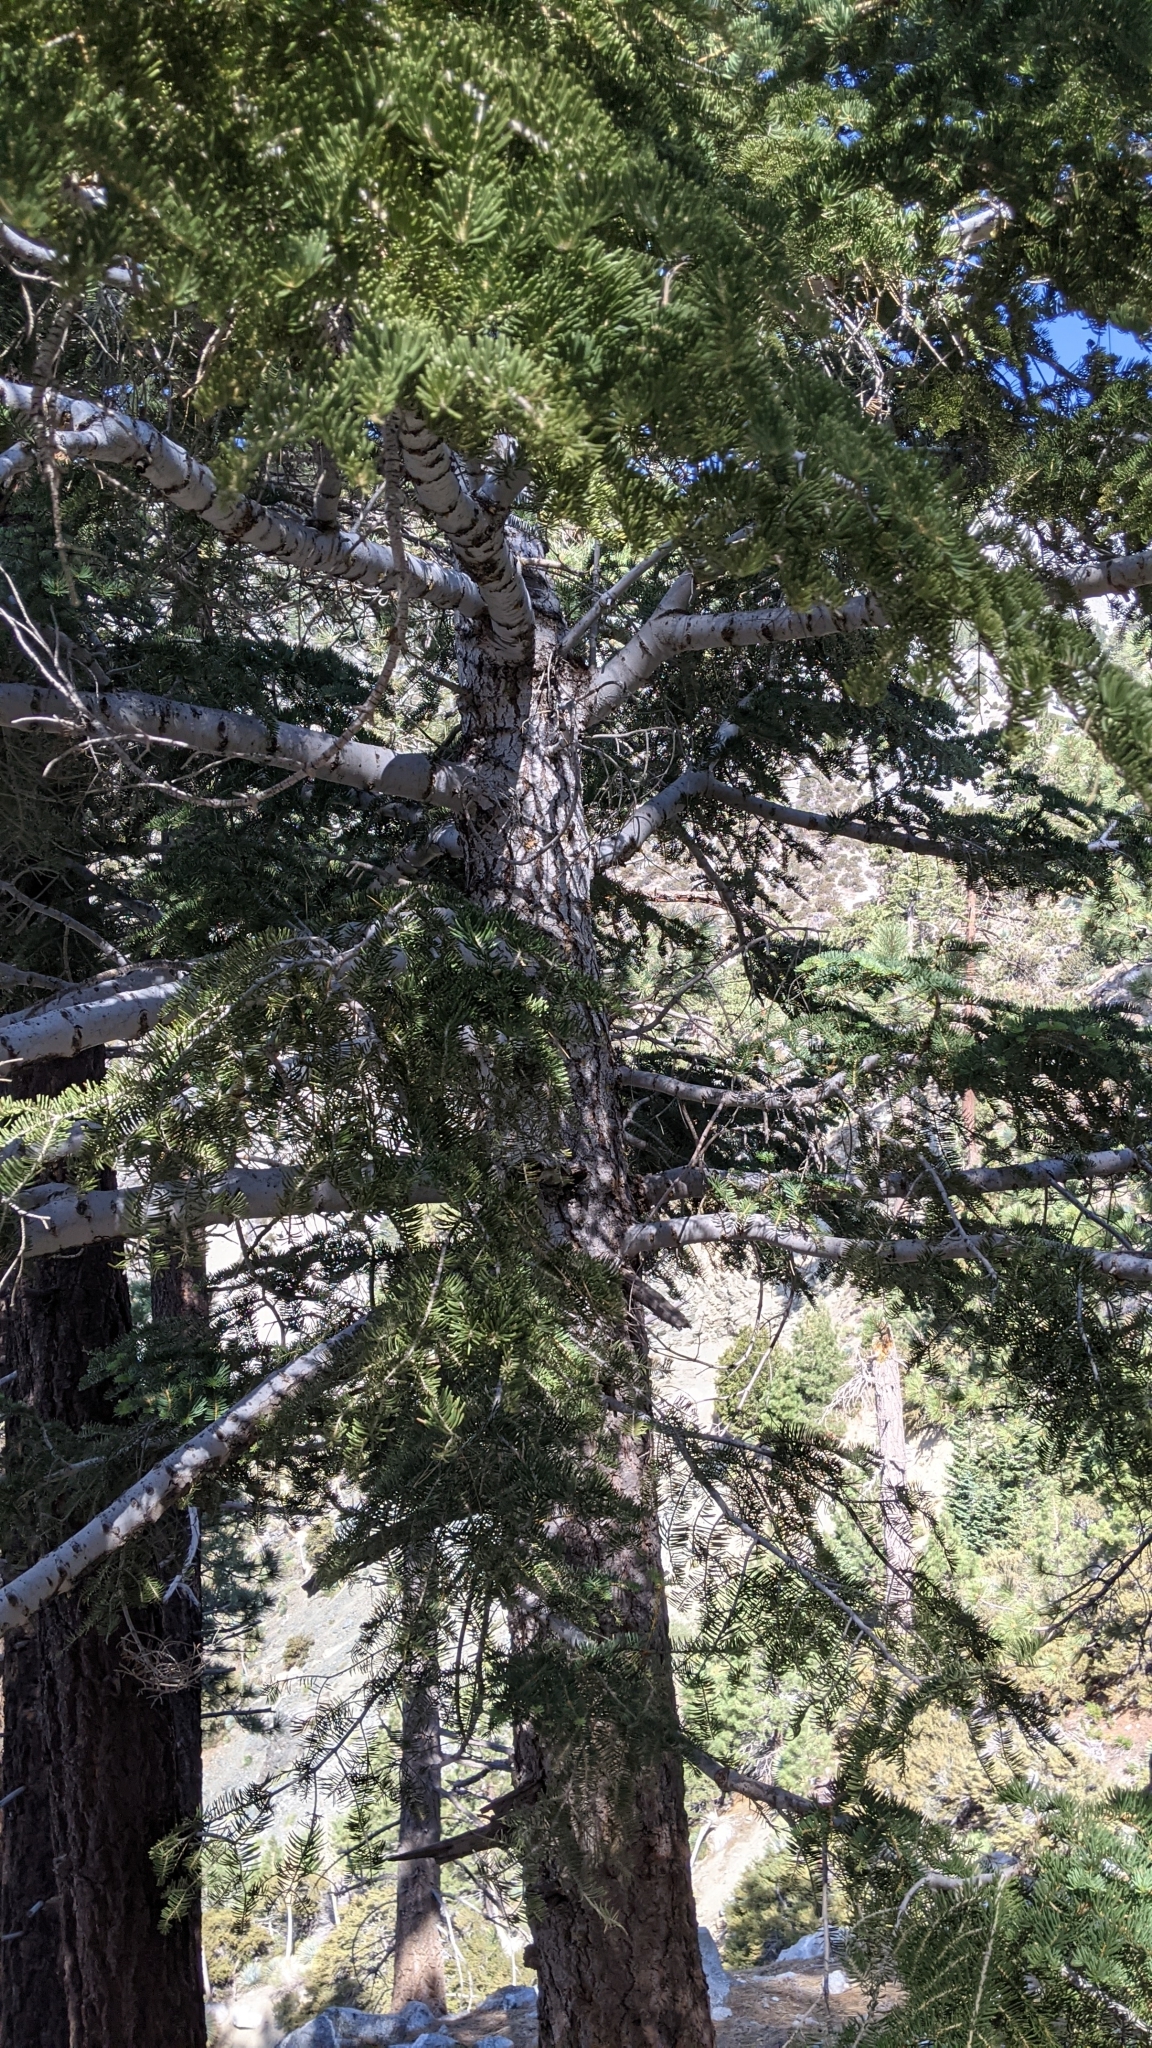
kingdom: Plantae
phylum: Tracheophyta
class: Pinopsida
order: Pinales
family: Pinaceae
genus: Abies
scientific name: Abies concolor
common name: Colorado fir
